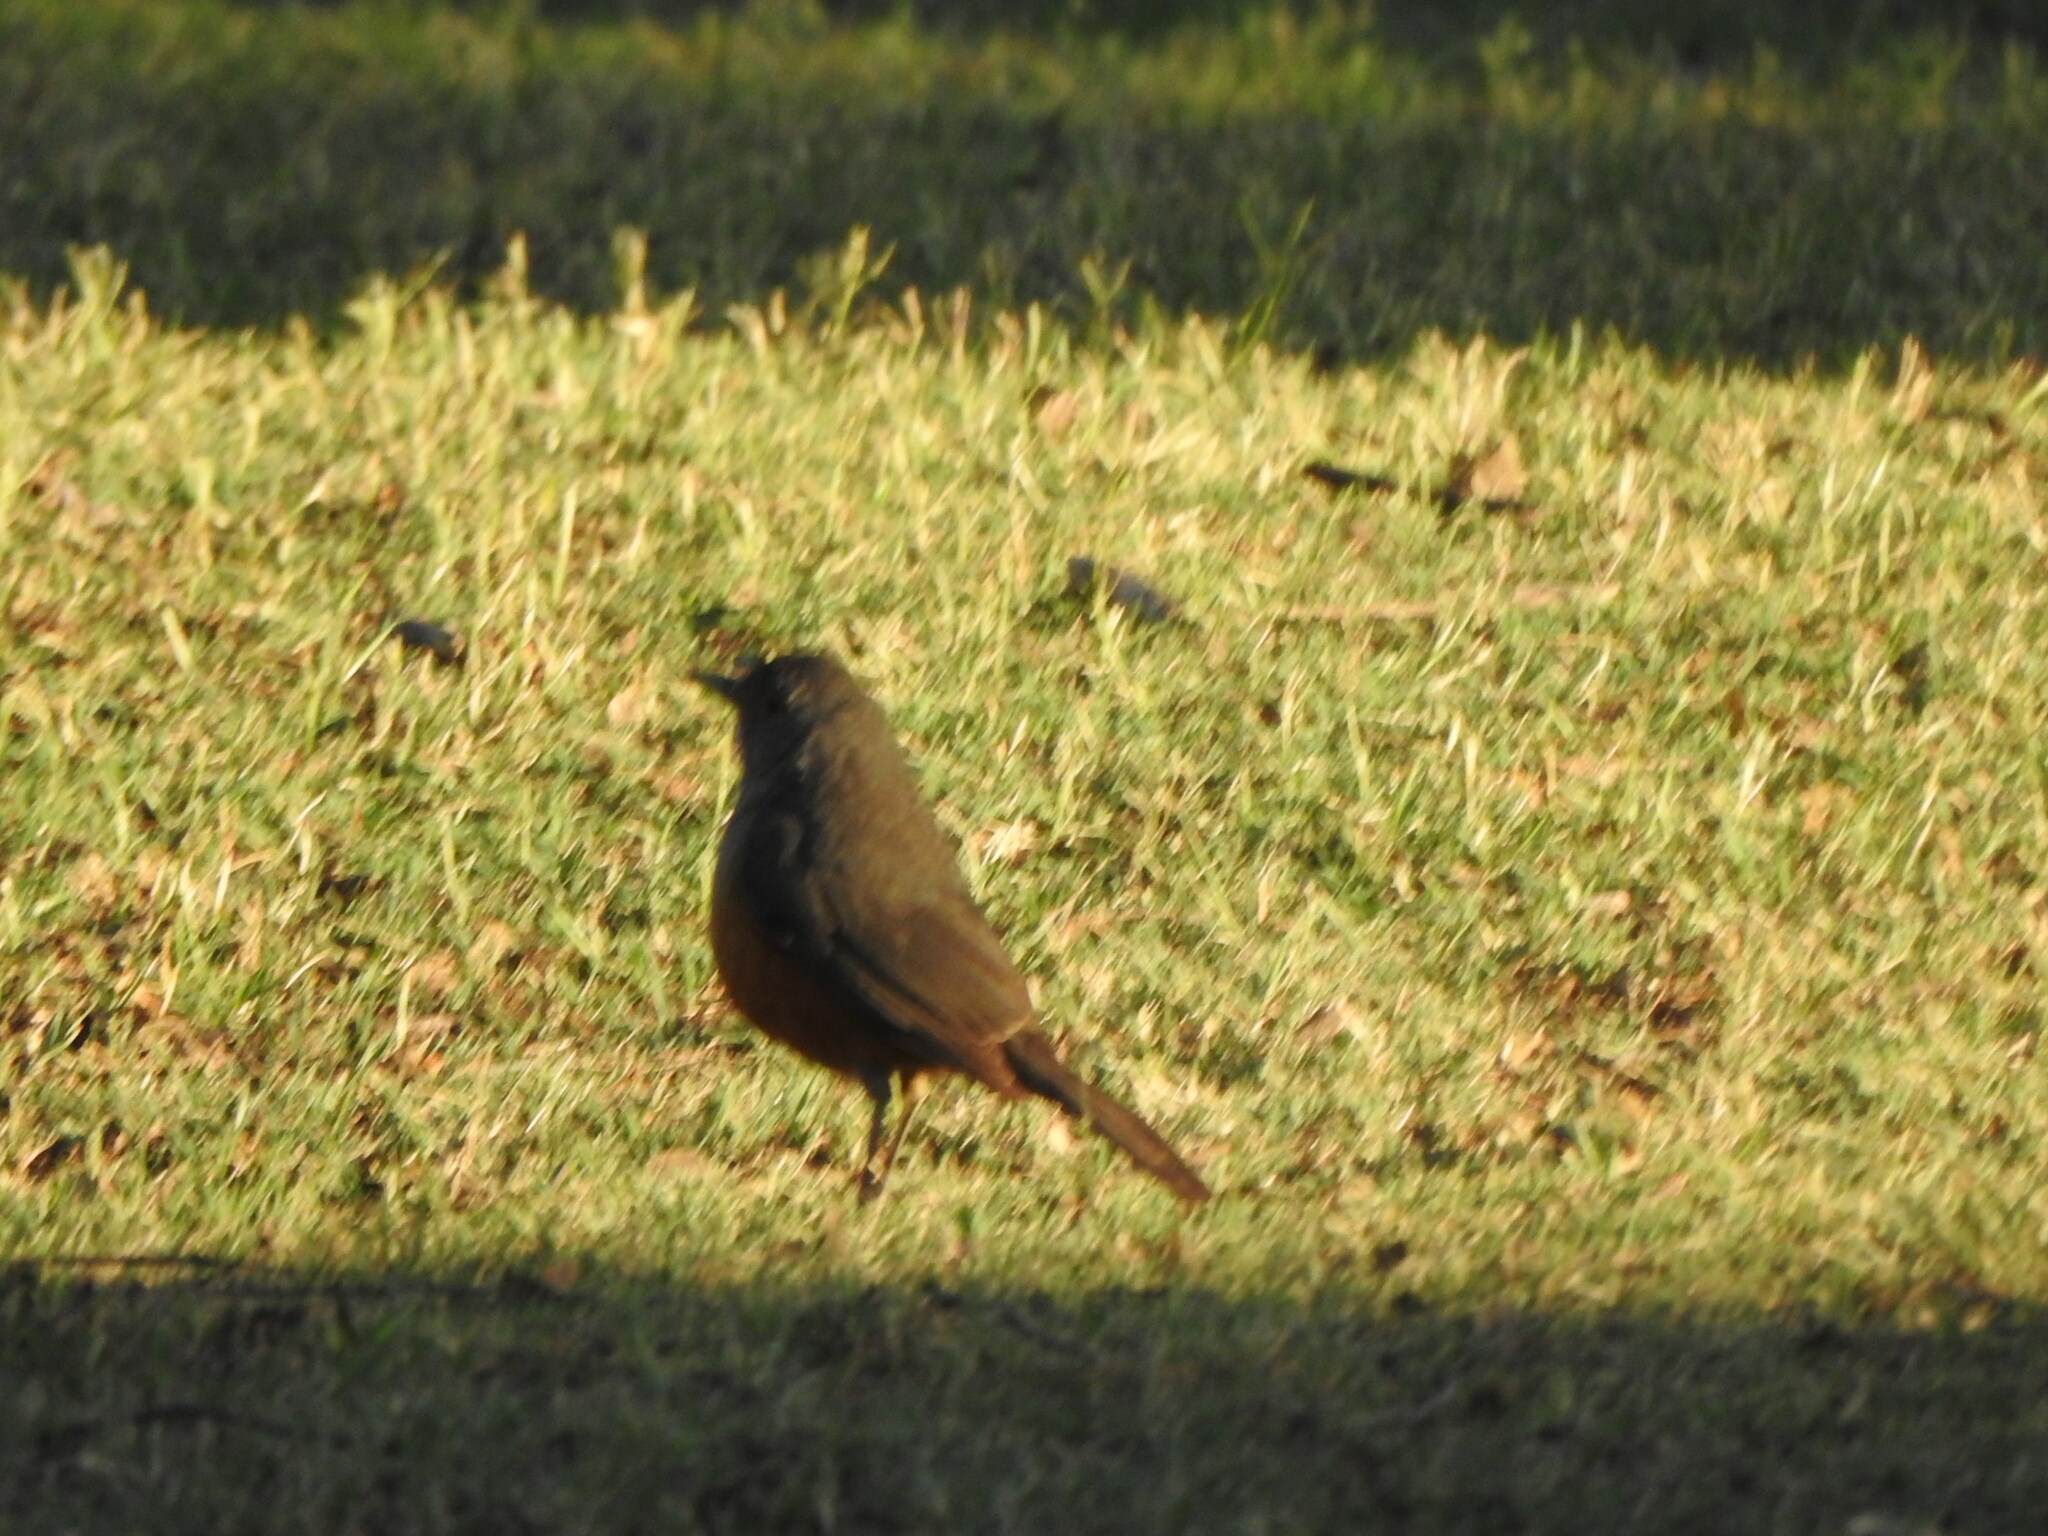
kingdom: Animalia
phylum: Chordata
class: Aves
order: Passeriformes
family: Turdidae
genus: Turdus
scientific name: Turdus rufiventris
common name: Rufous-bellied thrush
